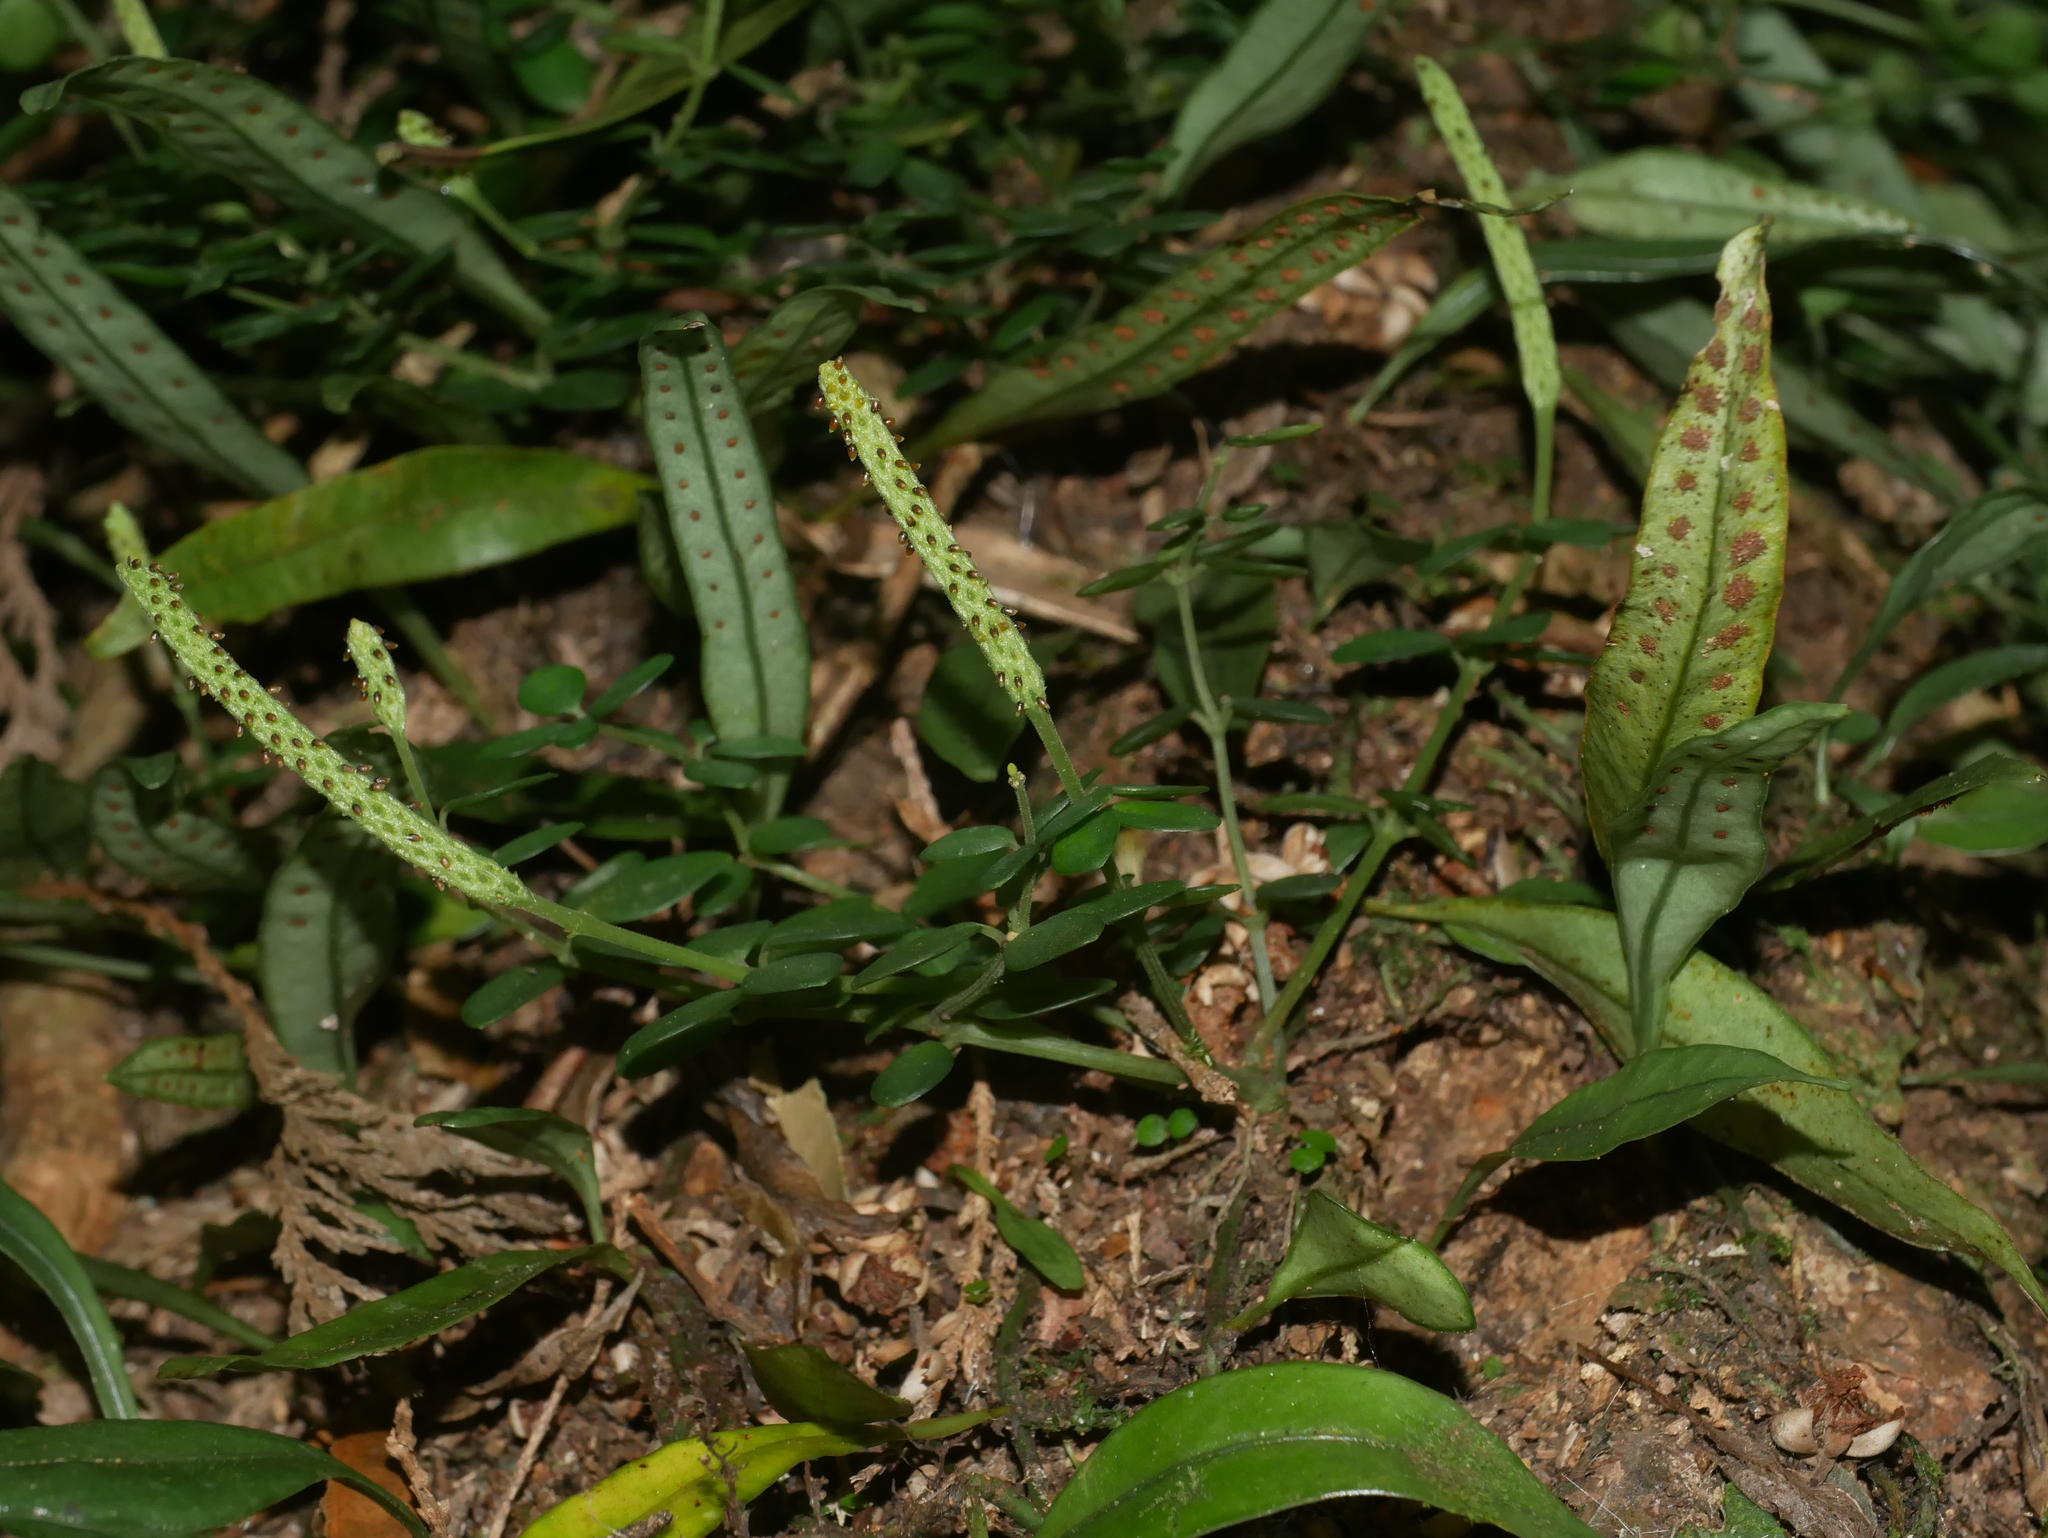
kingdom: Plantae
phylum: Tracheophyta
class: Magnoliopsida
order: Piperales
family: Piperaceae
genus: Peperomia
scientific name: Peperomia tetraphylla
